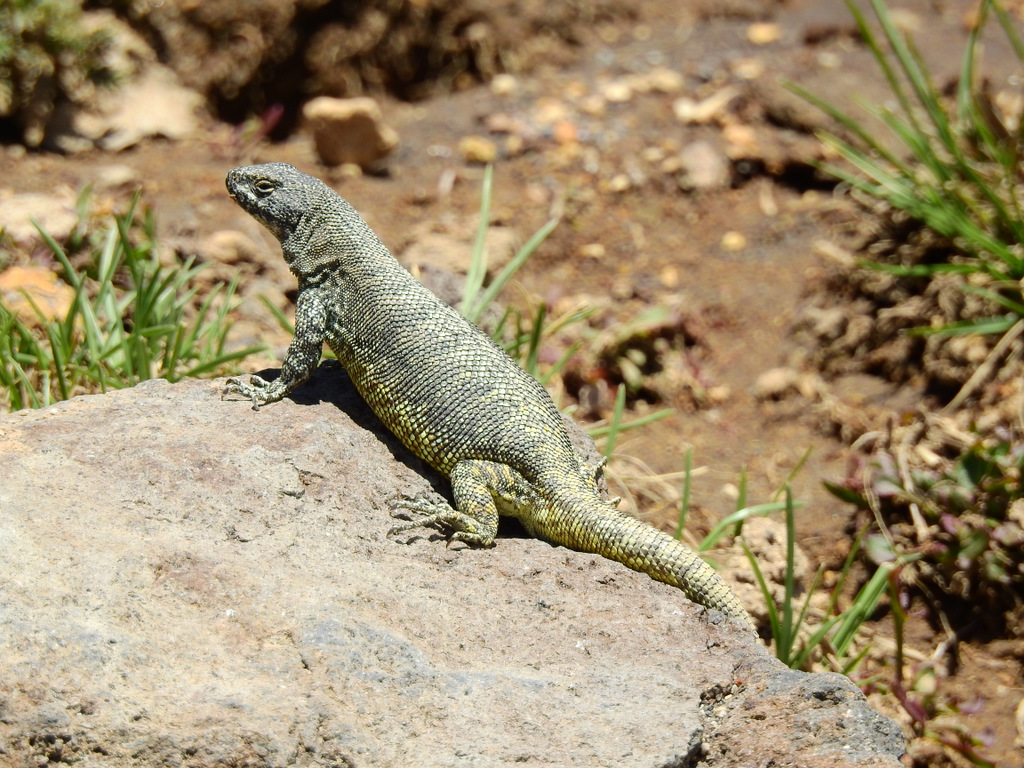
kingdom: Animalia
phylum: Chordata
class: Squamata
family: Liolaemidae
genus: Liolaemus
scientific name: Liolaemus flavipiceus
